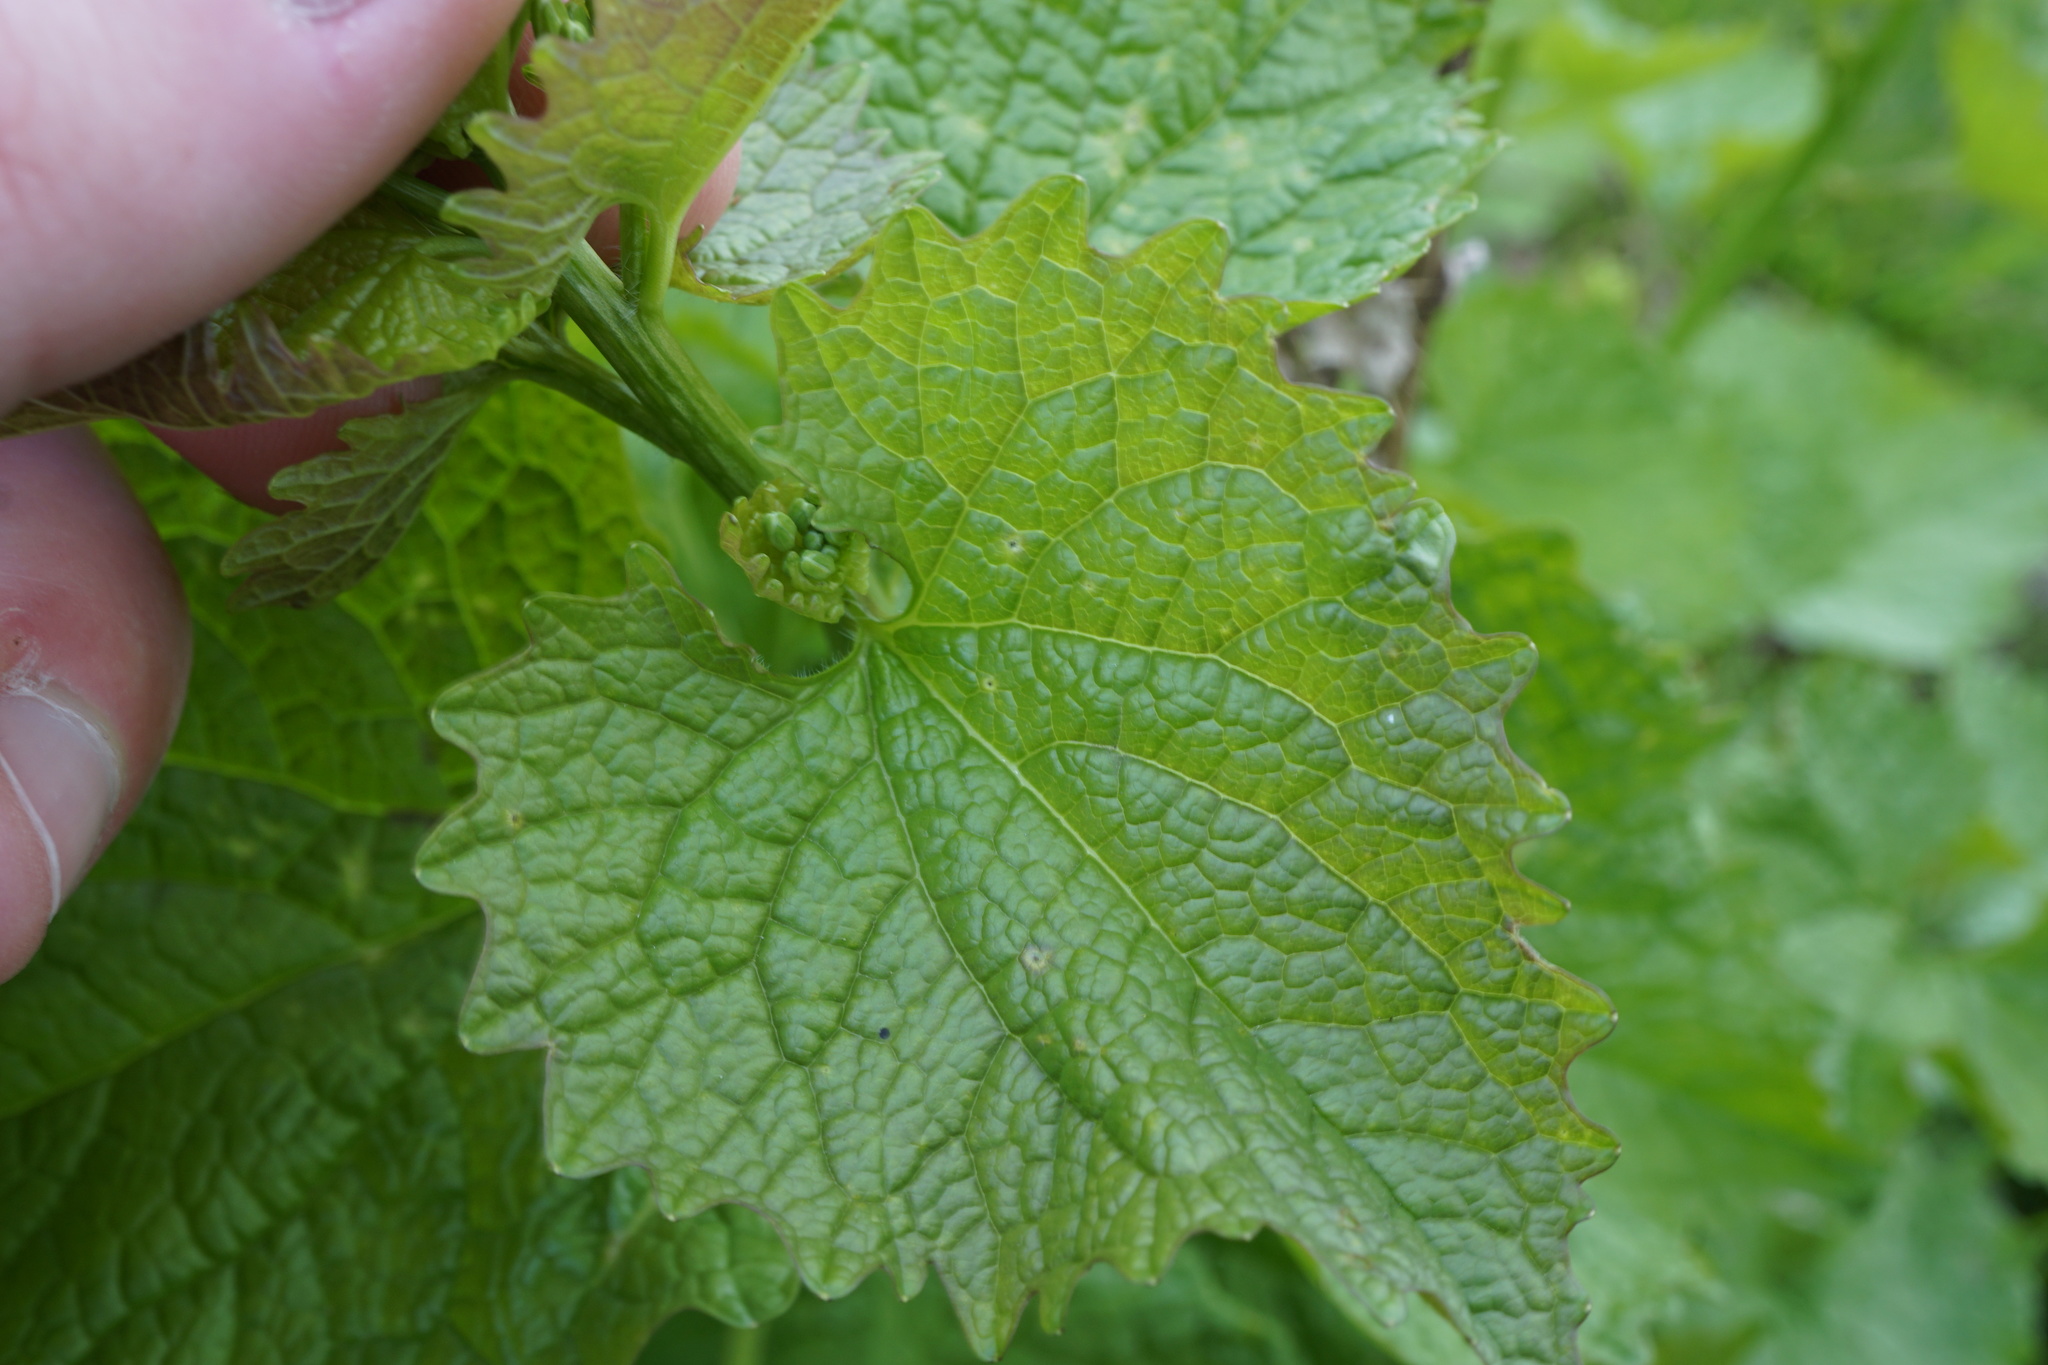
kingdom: Plantae
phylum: Tracheophyta
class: Magnoliopsida
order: Brassicales
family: Brassicaceae
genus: Alliaria
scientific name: Alliaria petiolata
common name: Garlic mustard
